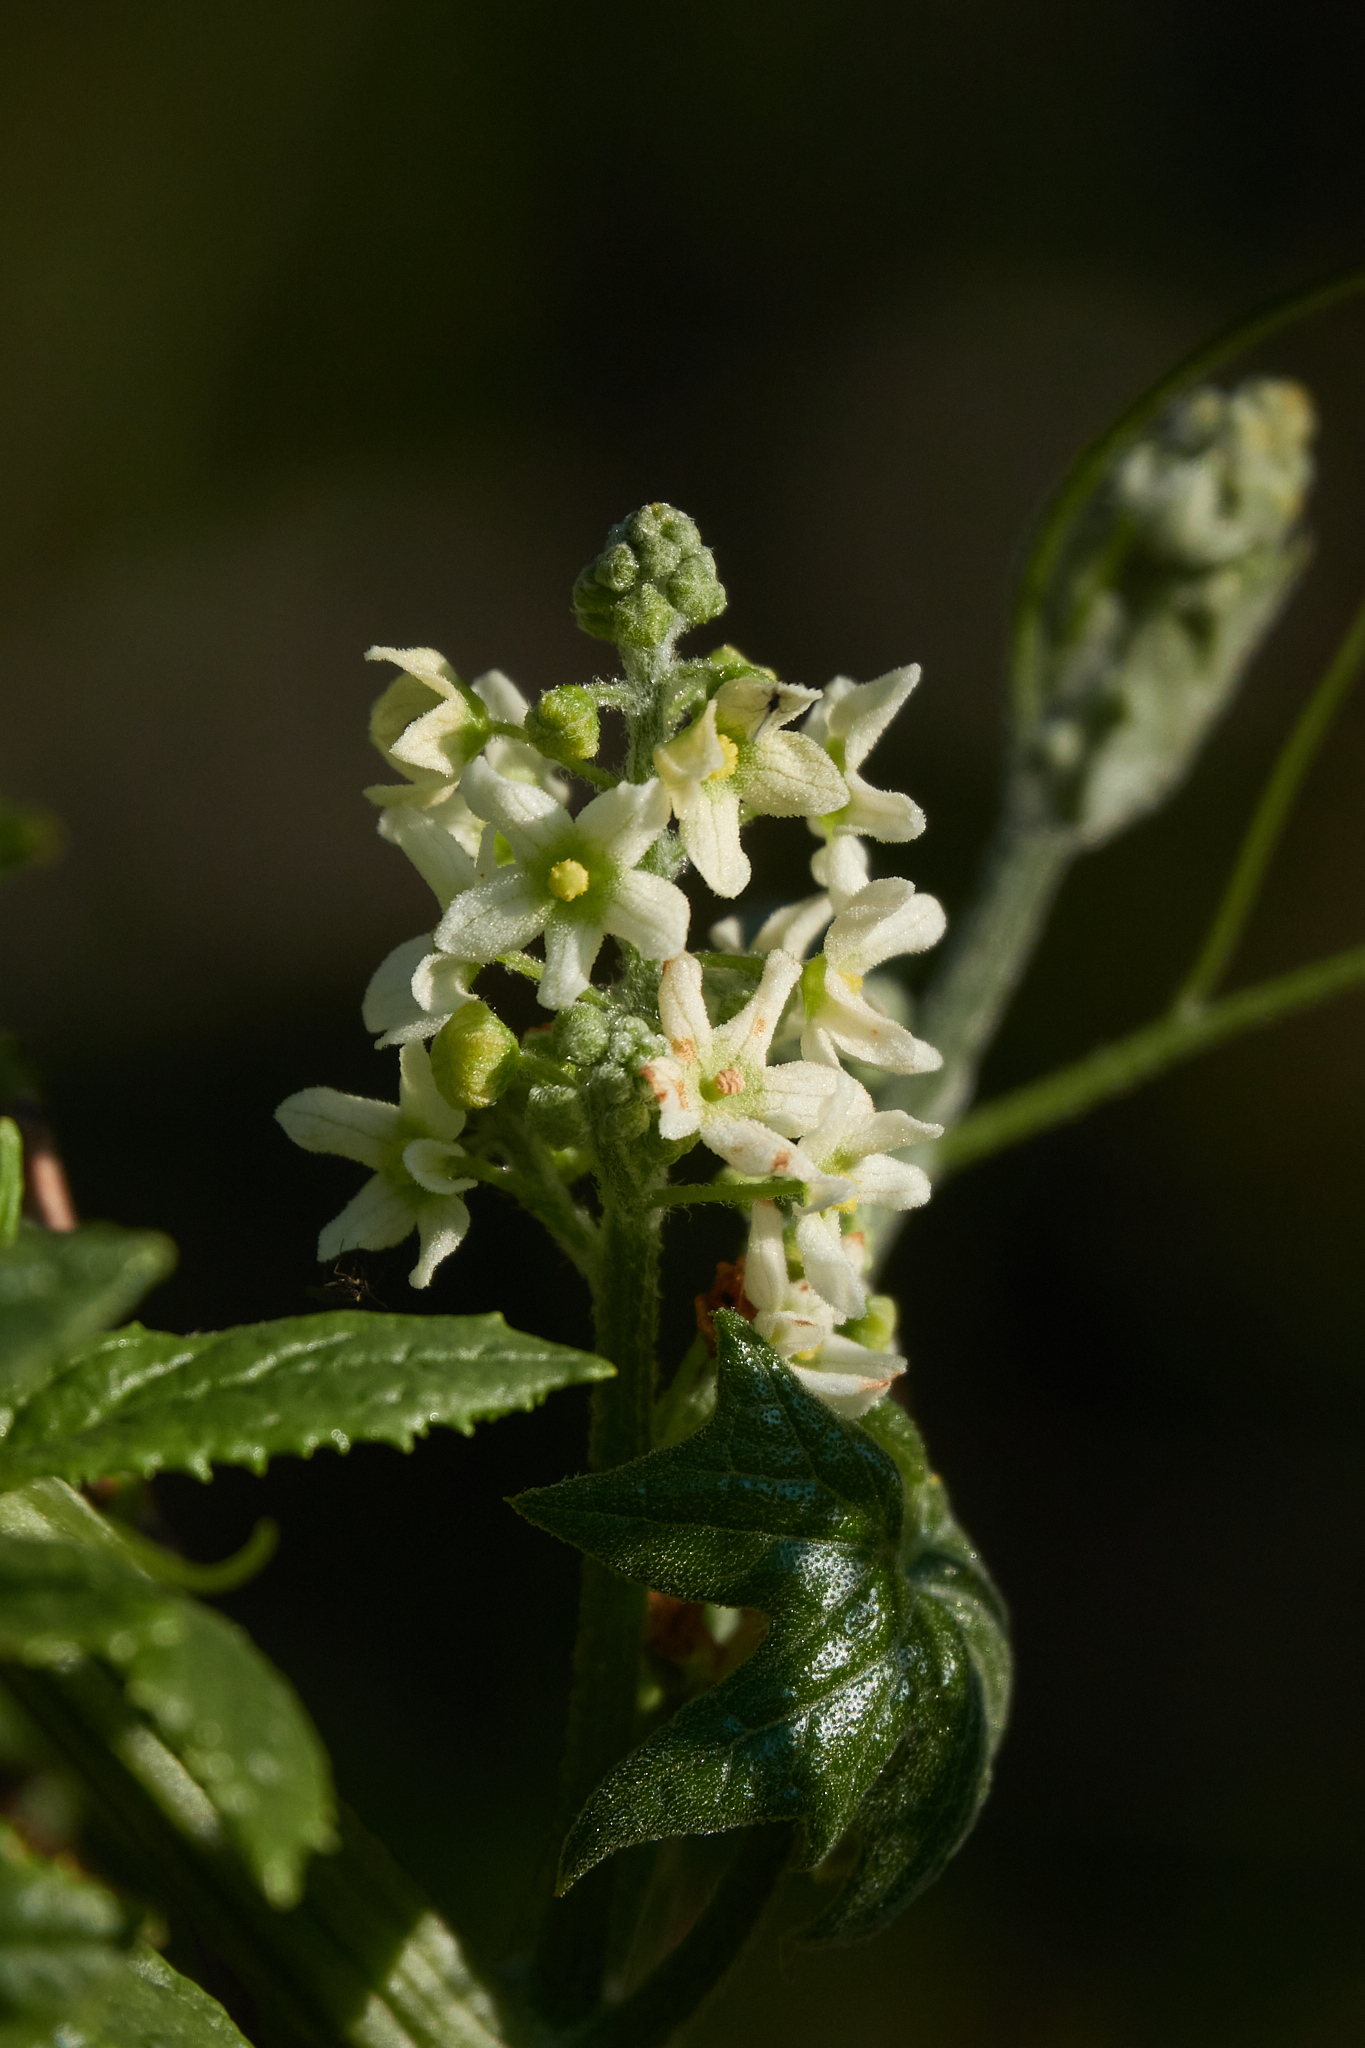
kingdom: Plantae
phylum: Tracheophyta
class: Magnoliopsida
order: Cucurbitales
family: Cucurbitaceae
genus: Marah
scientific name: Marah fabacea
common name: California manroot
